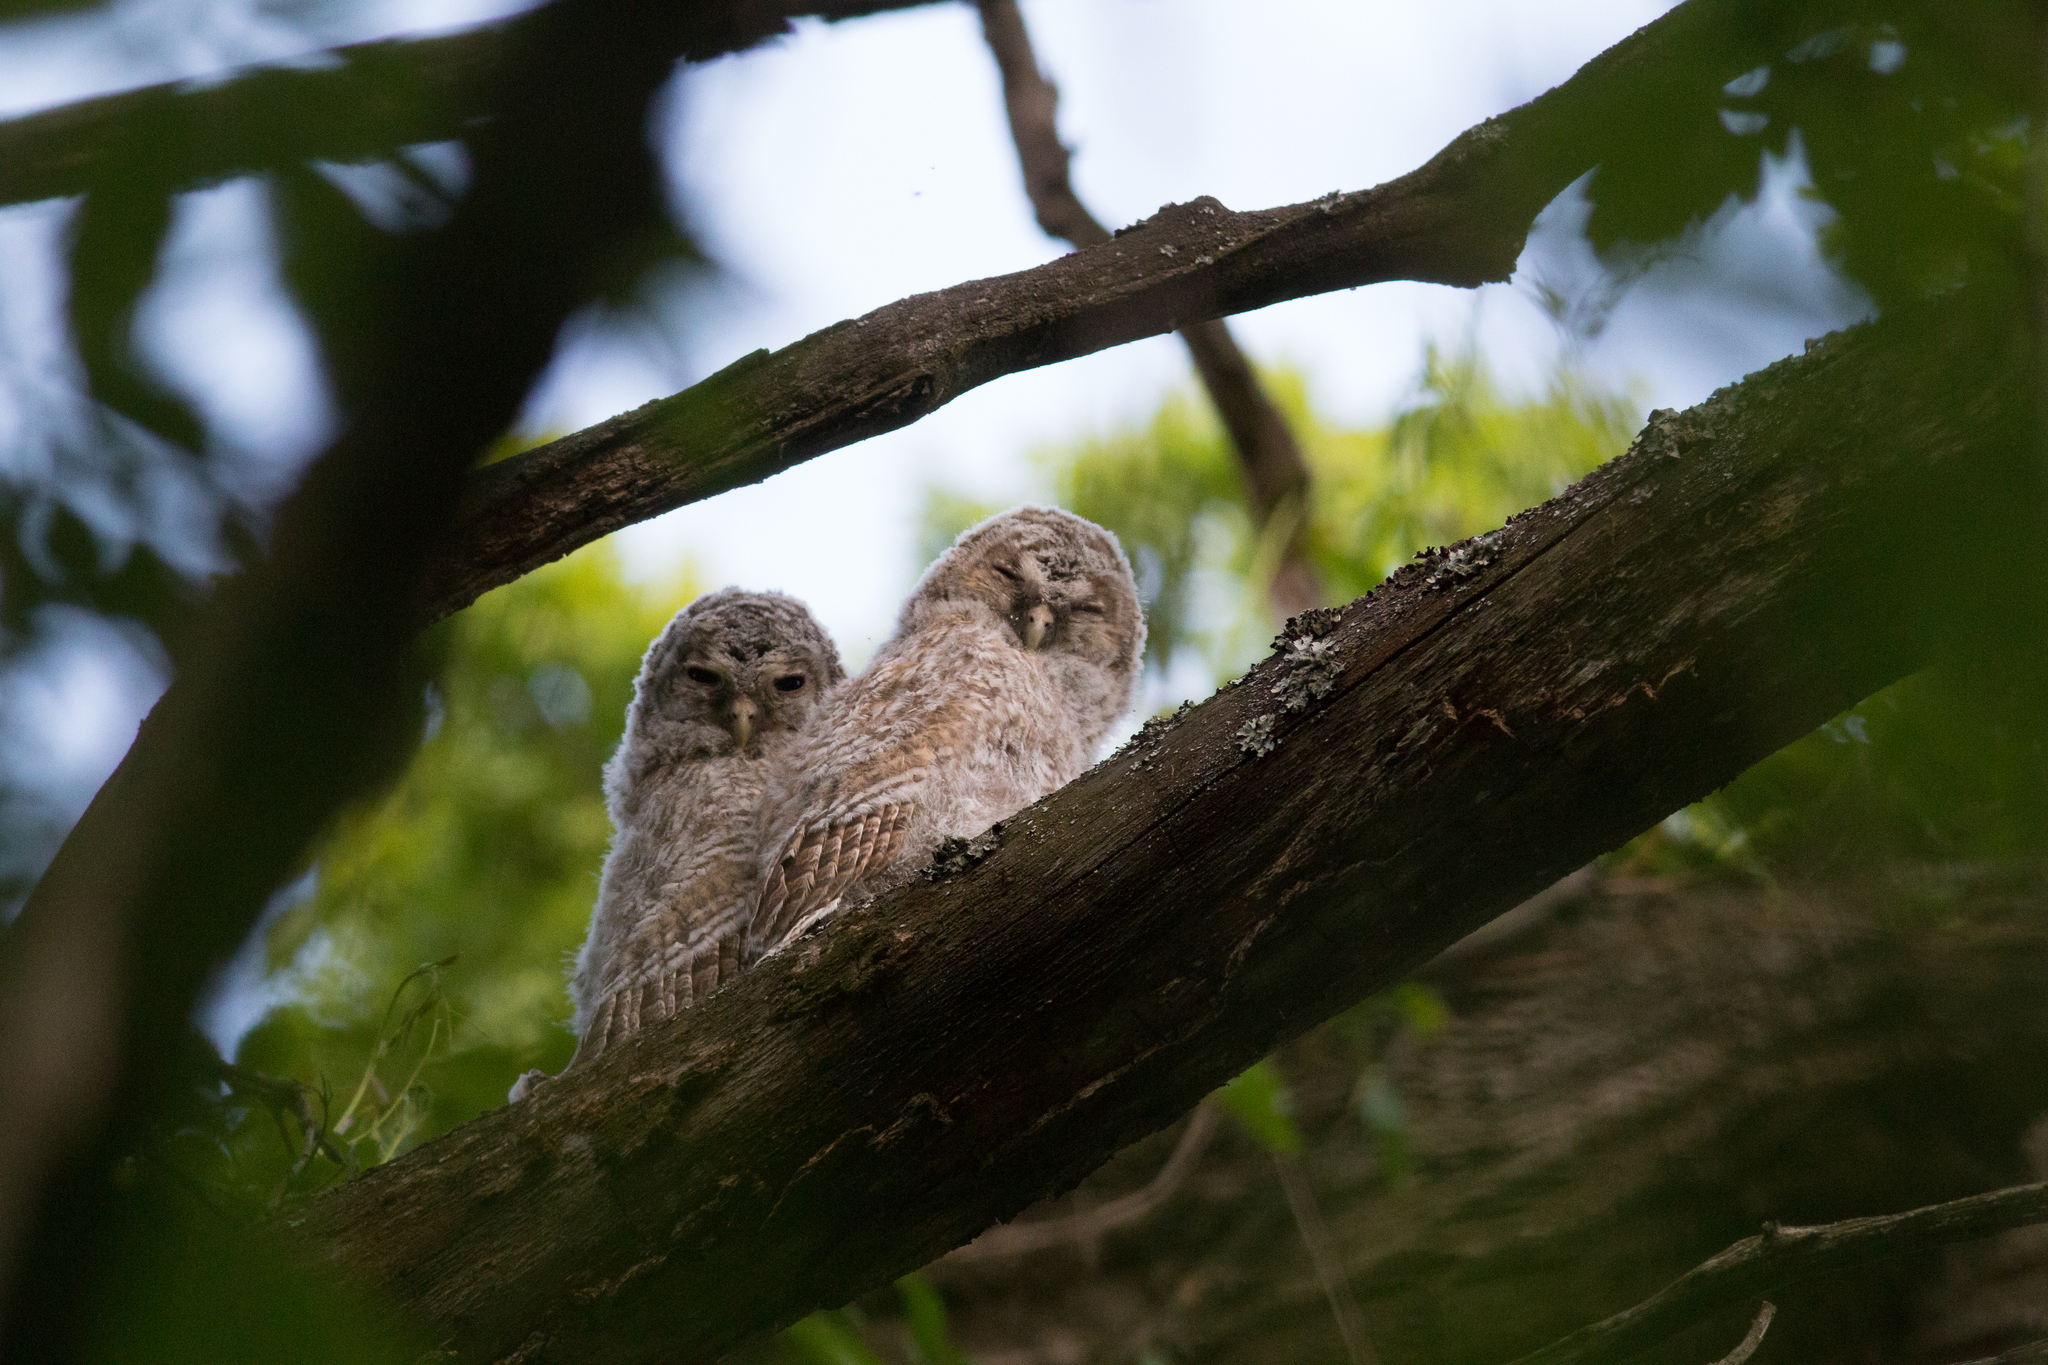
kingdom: Animalia
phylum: Chordata
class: Aves
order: Strigiformes
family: Strigidae
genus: Strix
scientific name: Strix aluco
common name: Tawny owl
